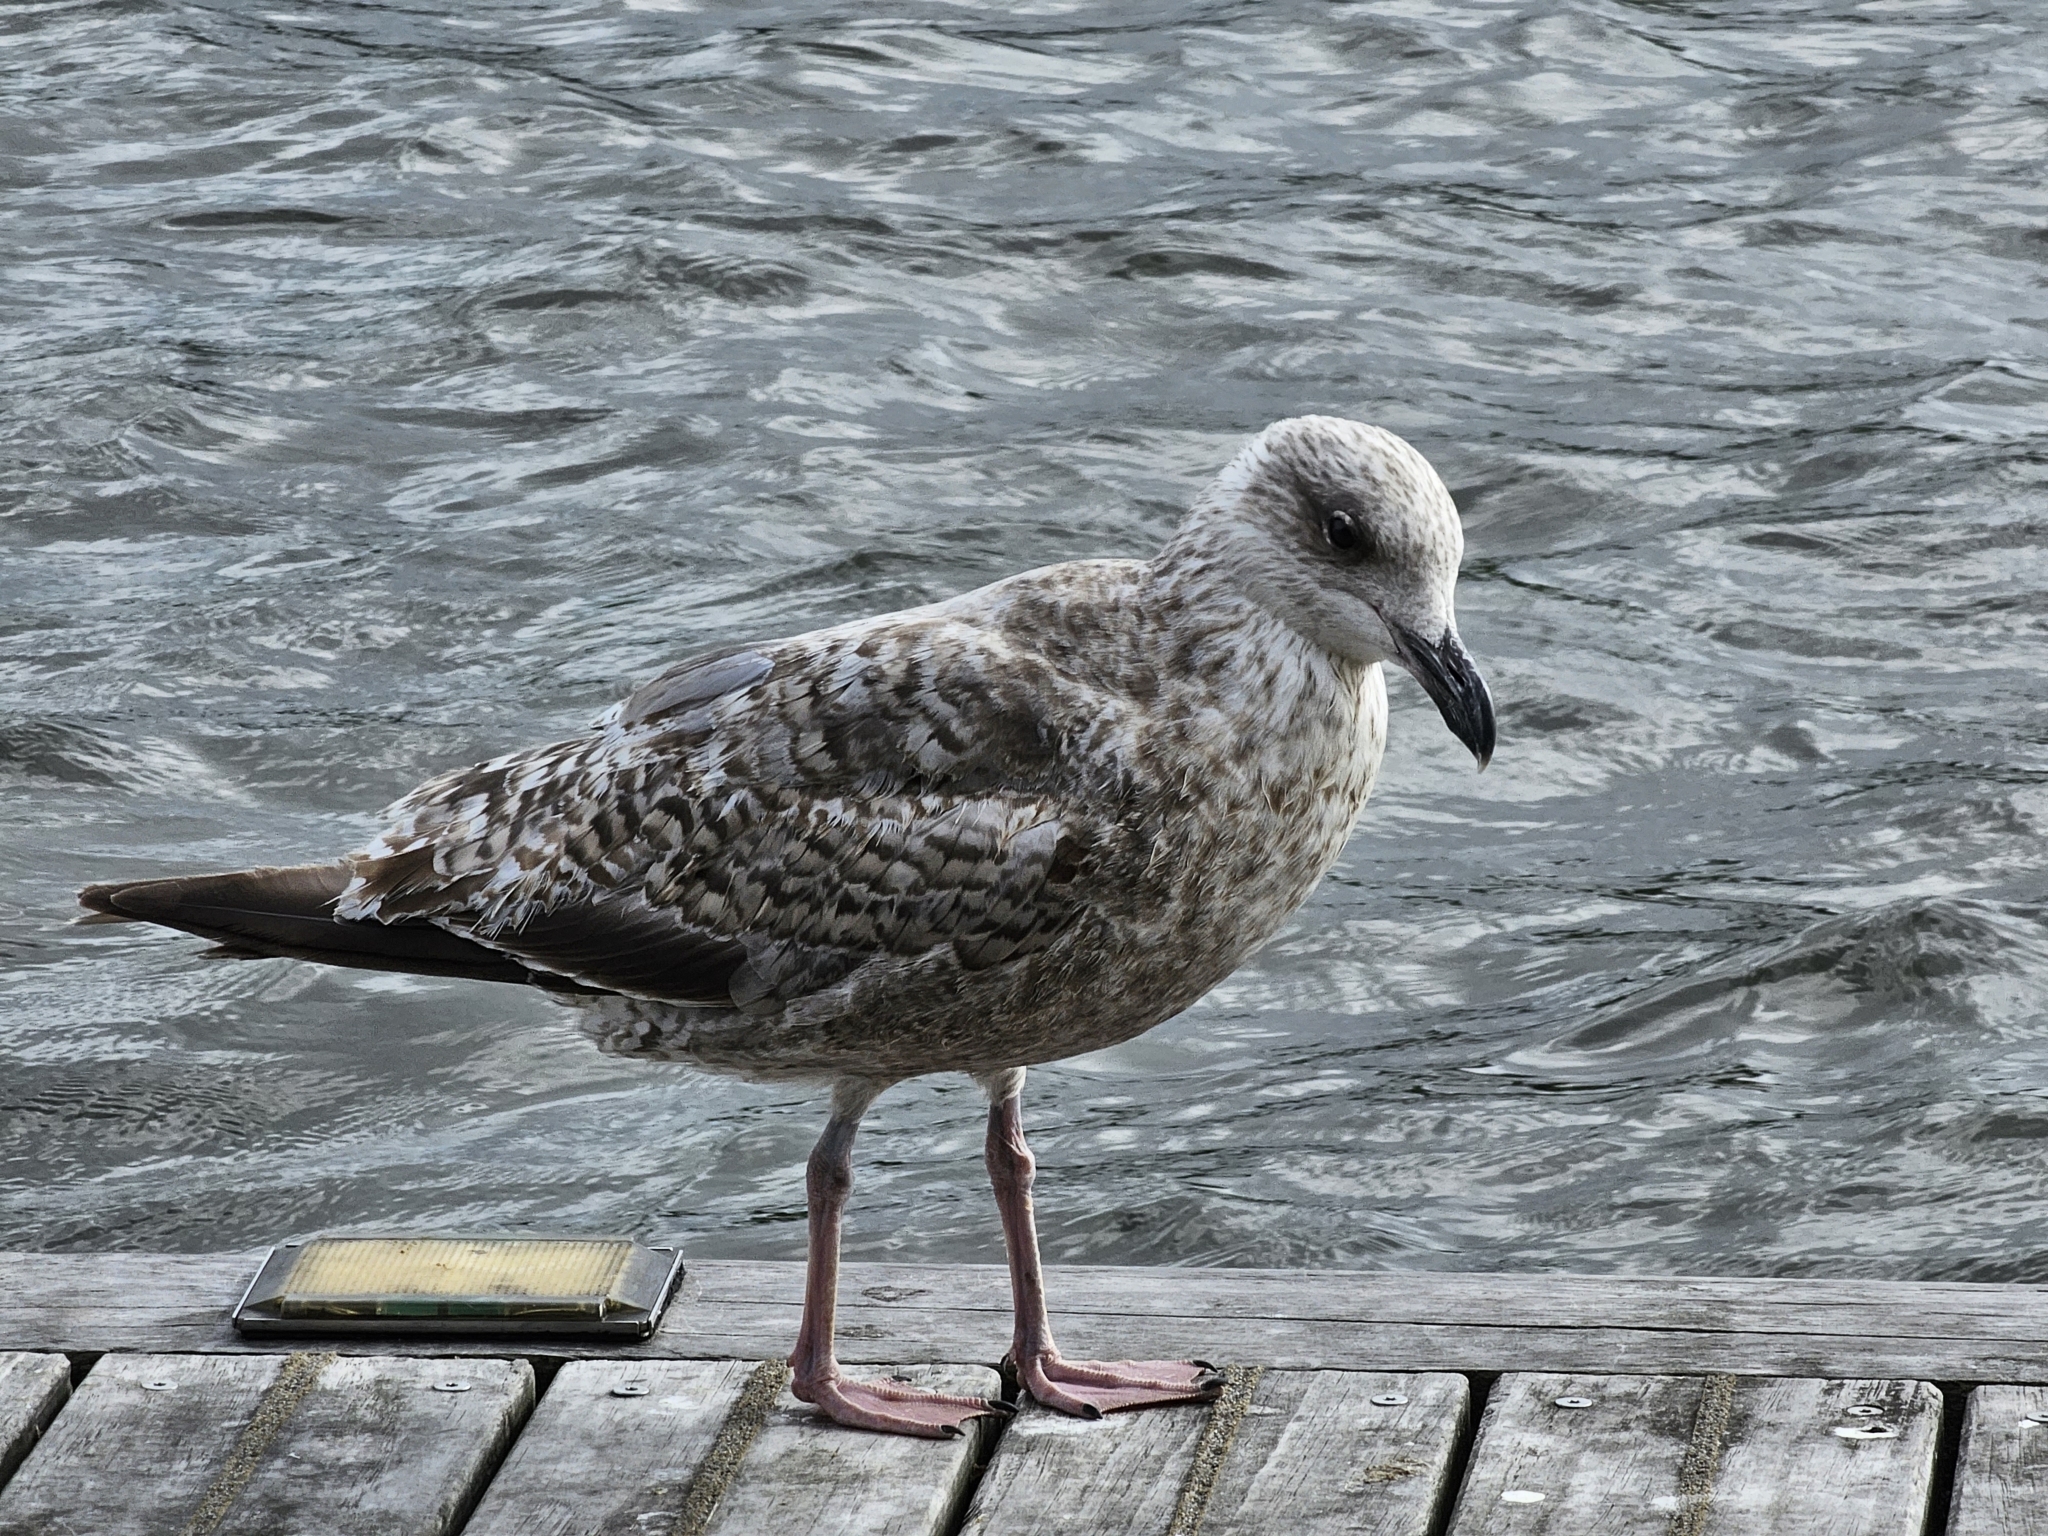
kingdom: Animalia
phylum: Chordata
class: Aves
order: Charadriiformes
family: Laridae
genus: Larus
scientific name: Larus argentatus
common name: Herring gull
